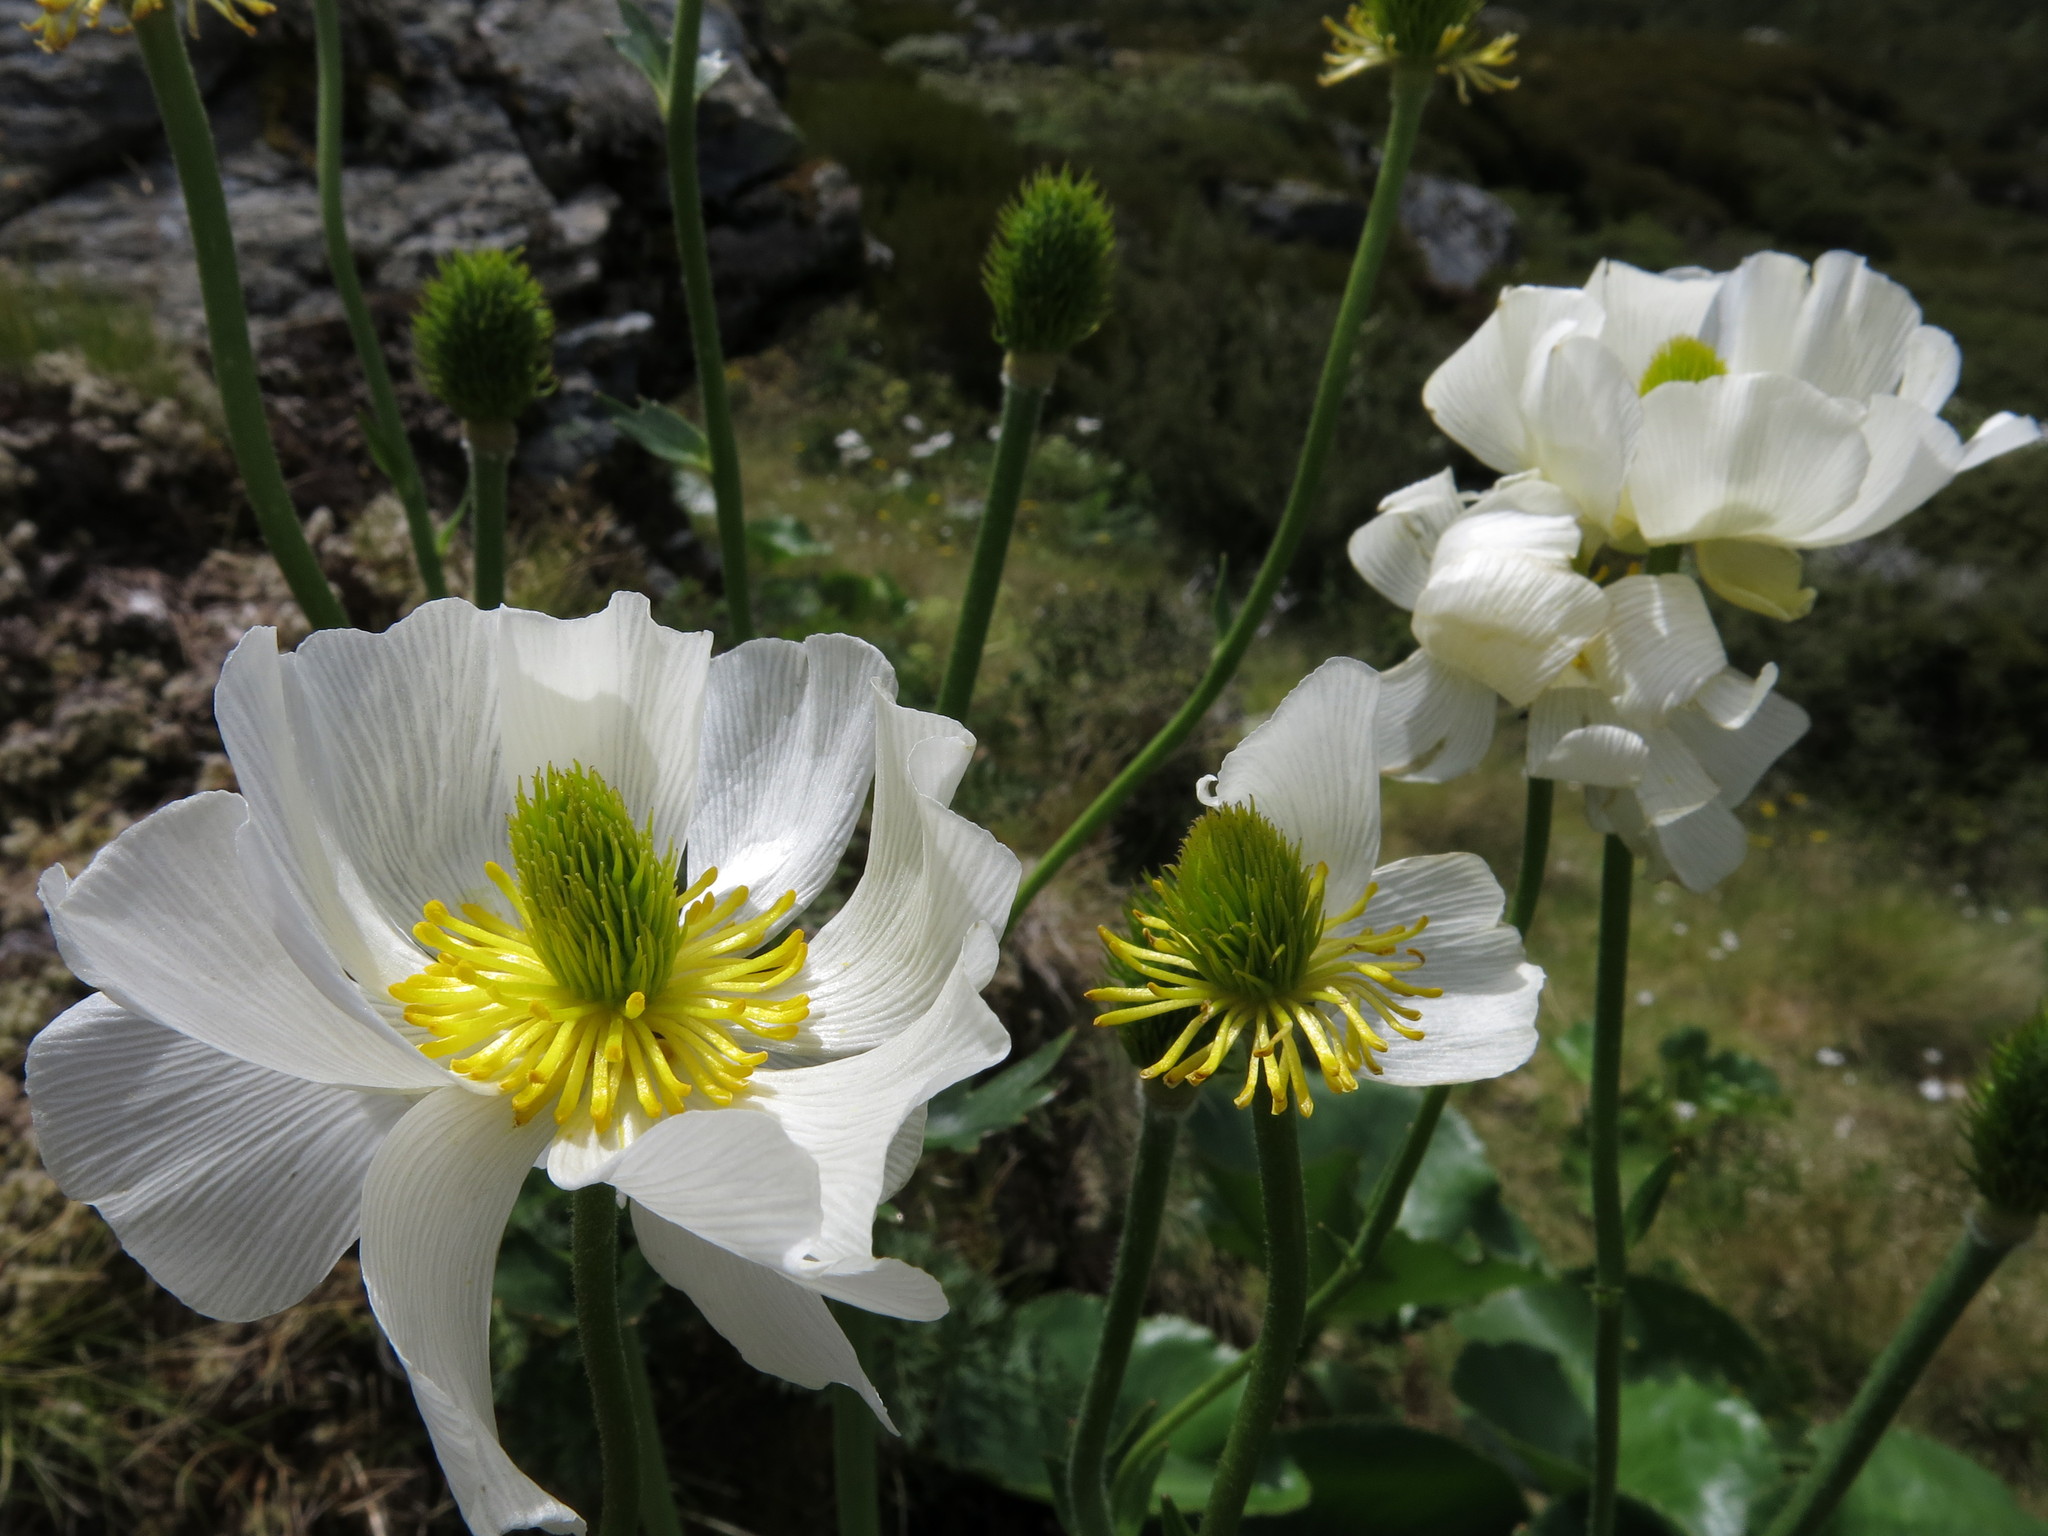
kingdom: Plantae
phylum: Tracheophyta
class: Magnoliopsida
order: Ranunculales
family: Ranunculaceae
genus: Ranunculus
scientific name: Ranunculus lyallii
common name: Mountain-lily
